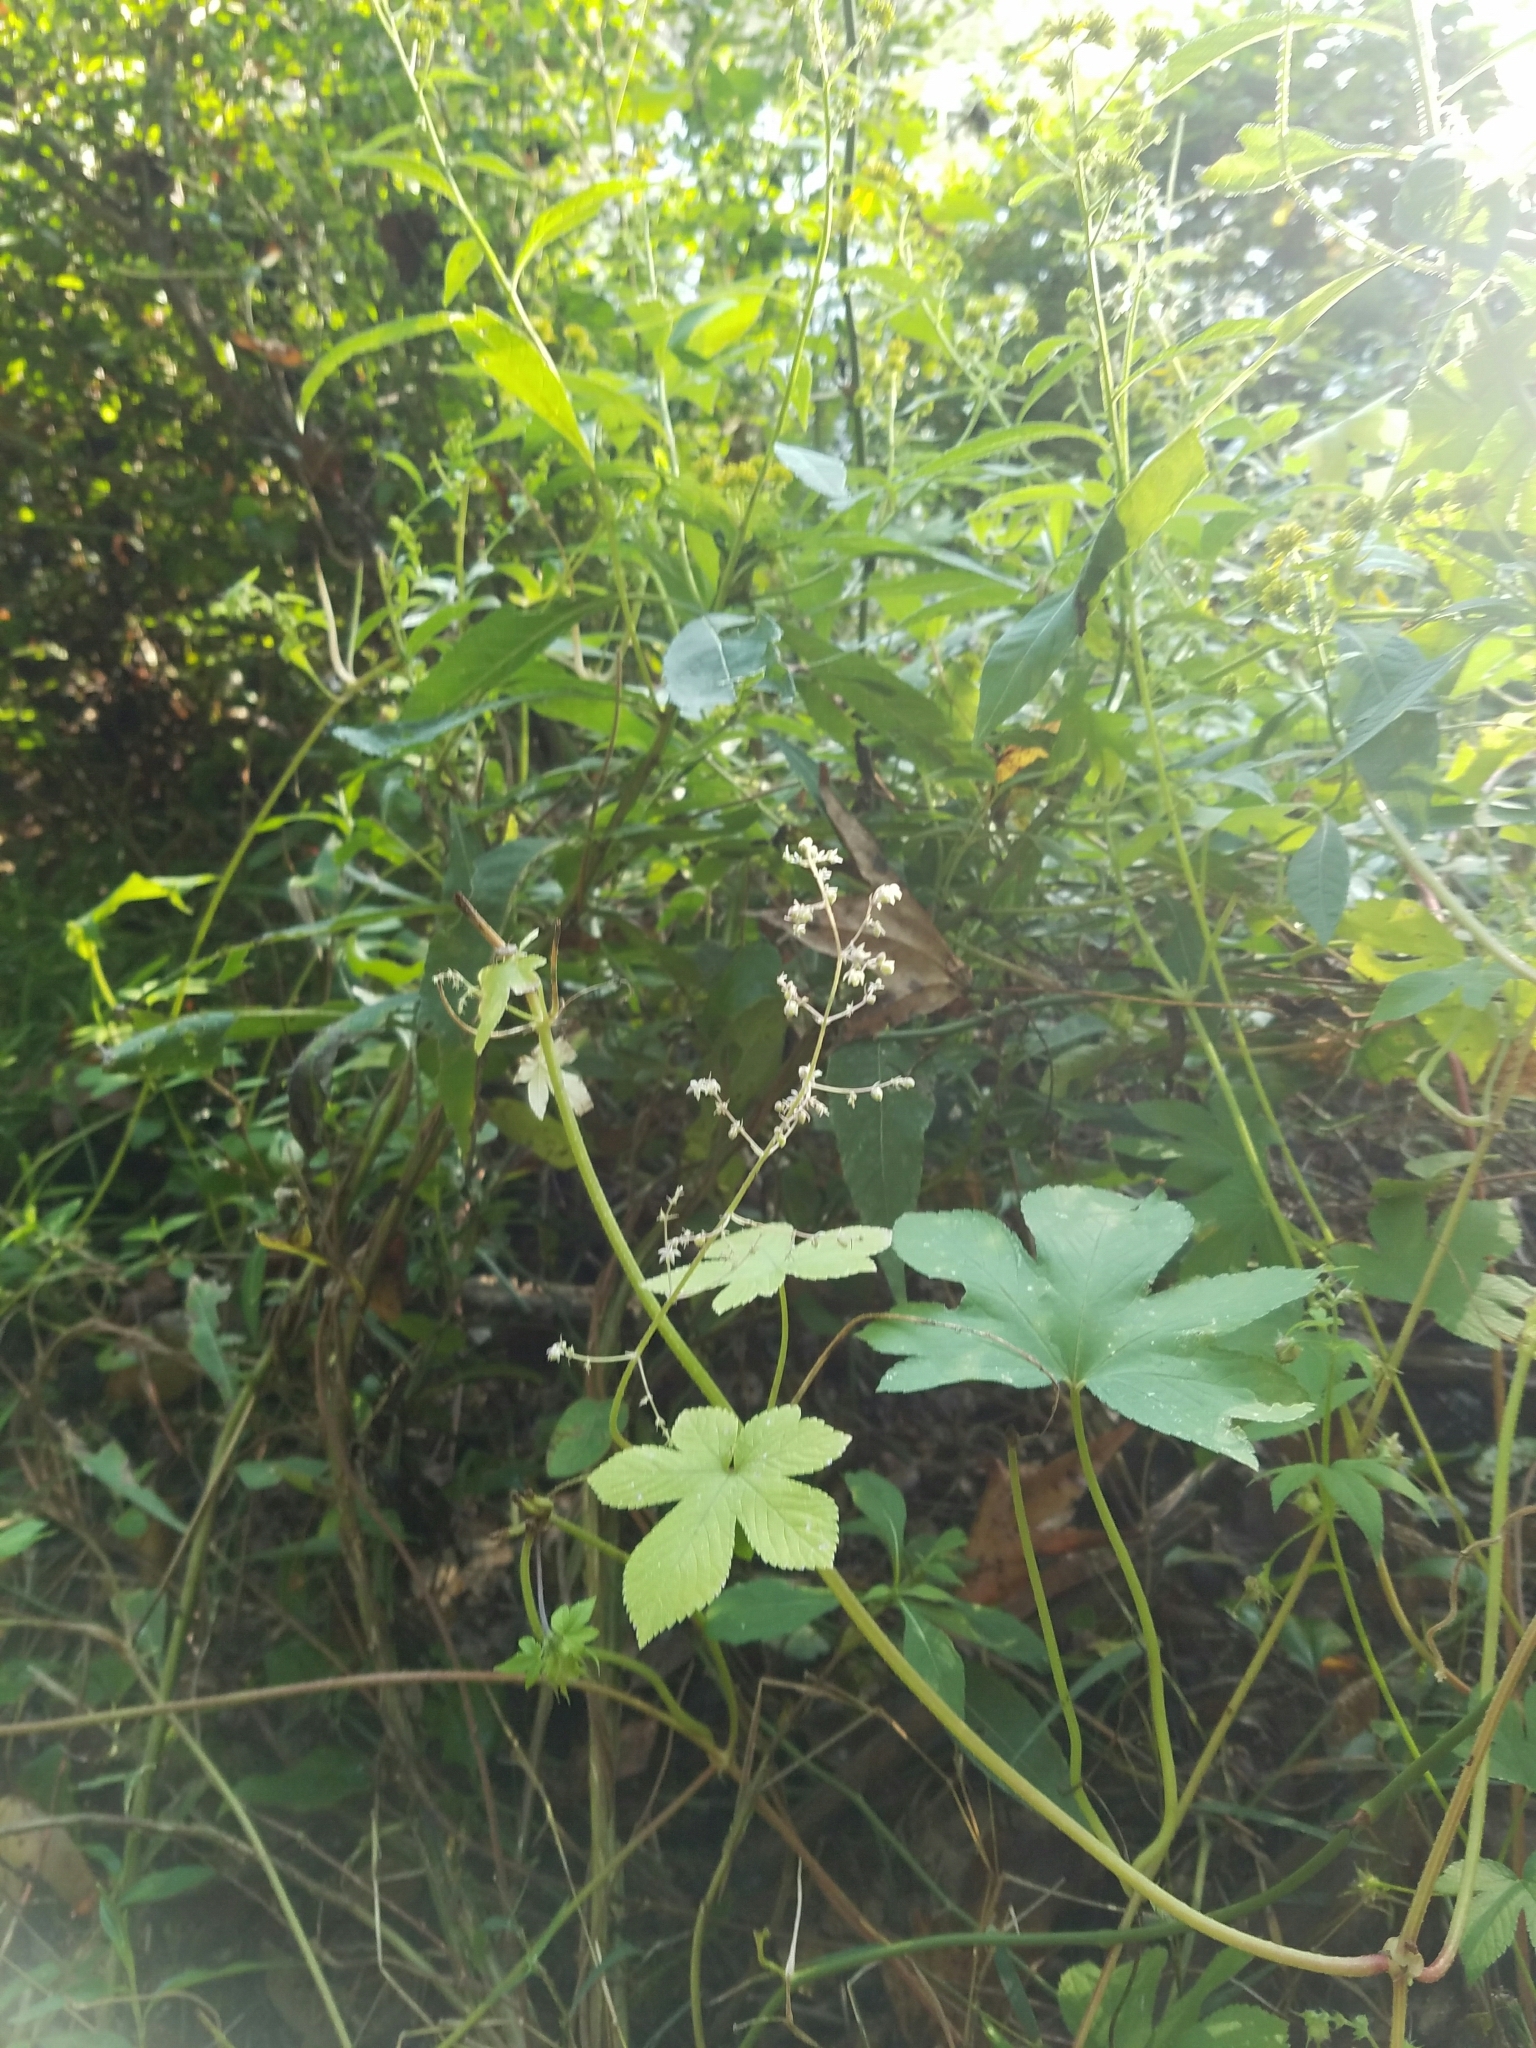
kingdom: Plantae
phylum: Tracheophyta
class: Magnoliopsida
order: Rosales
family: Cannabaceae
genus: Humulus
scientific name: Humulus scandens
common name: Japanese hop
